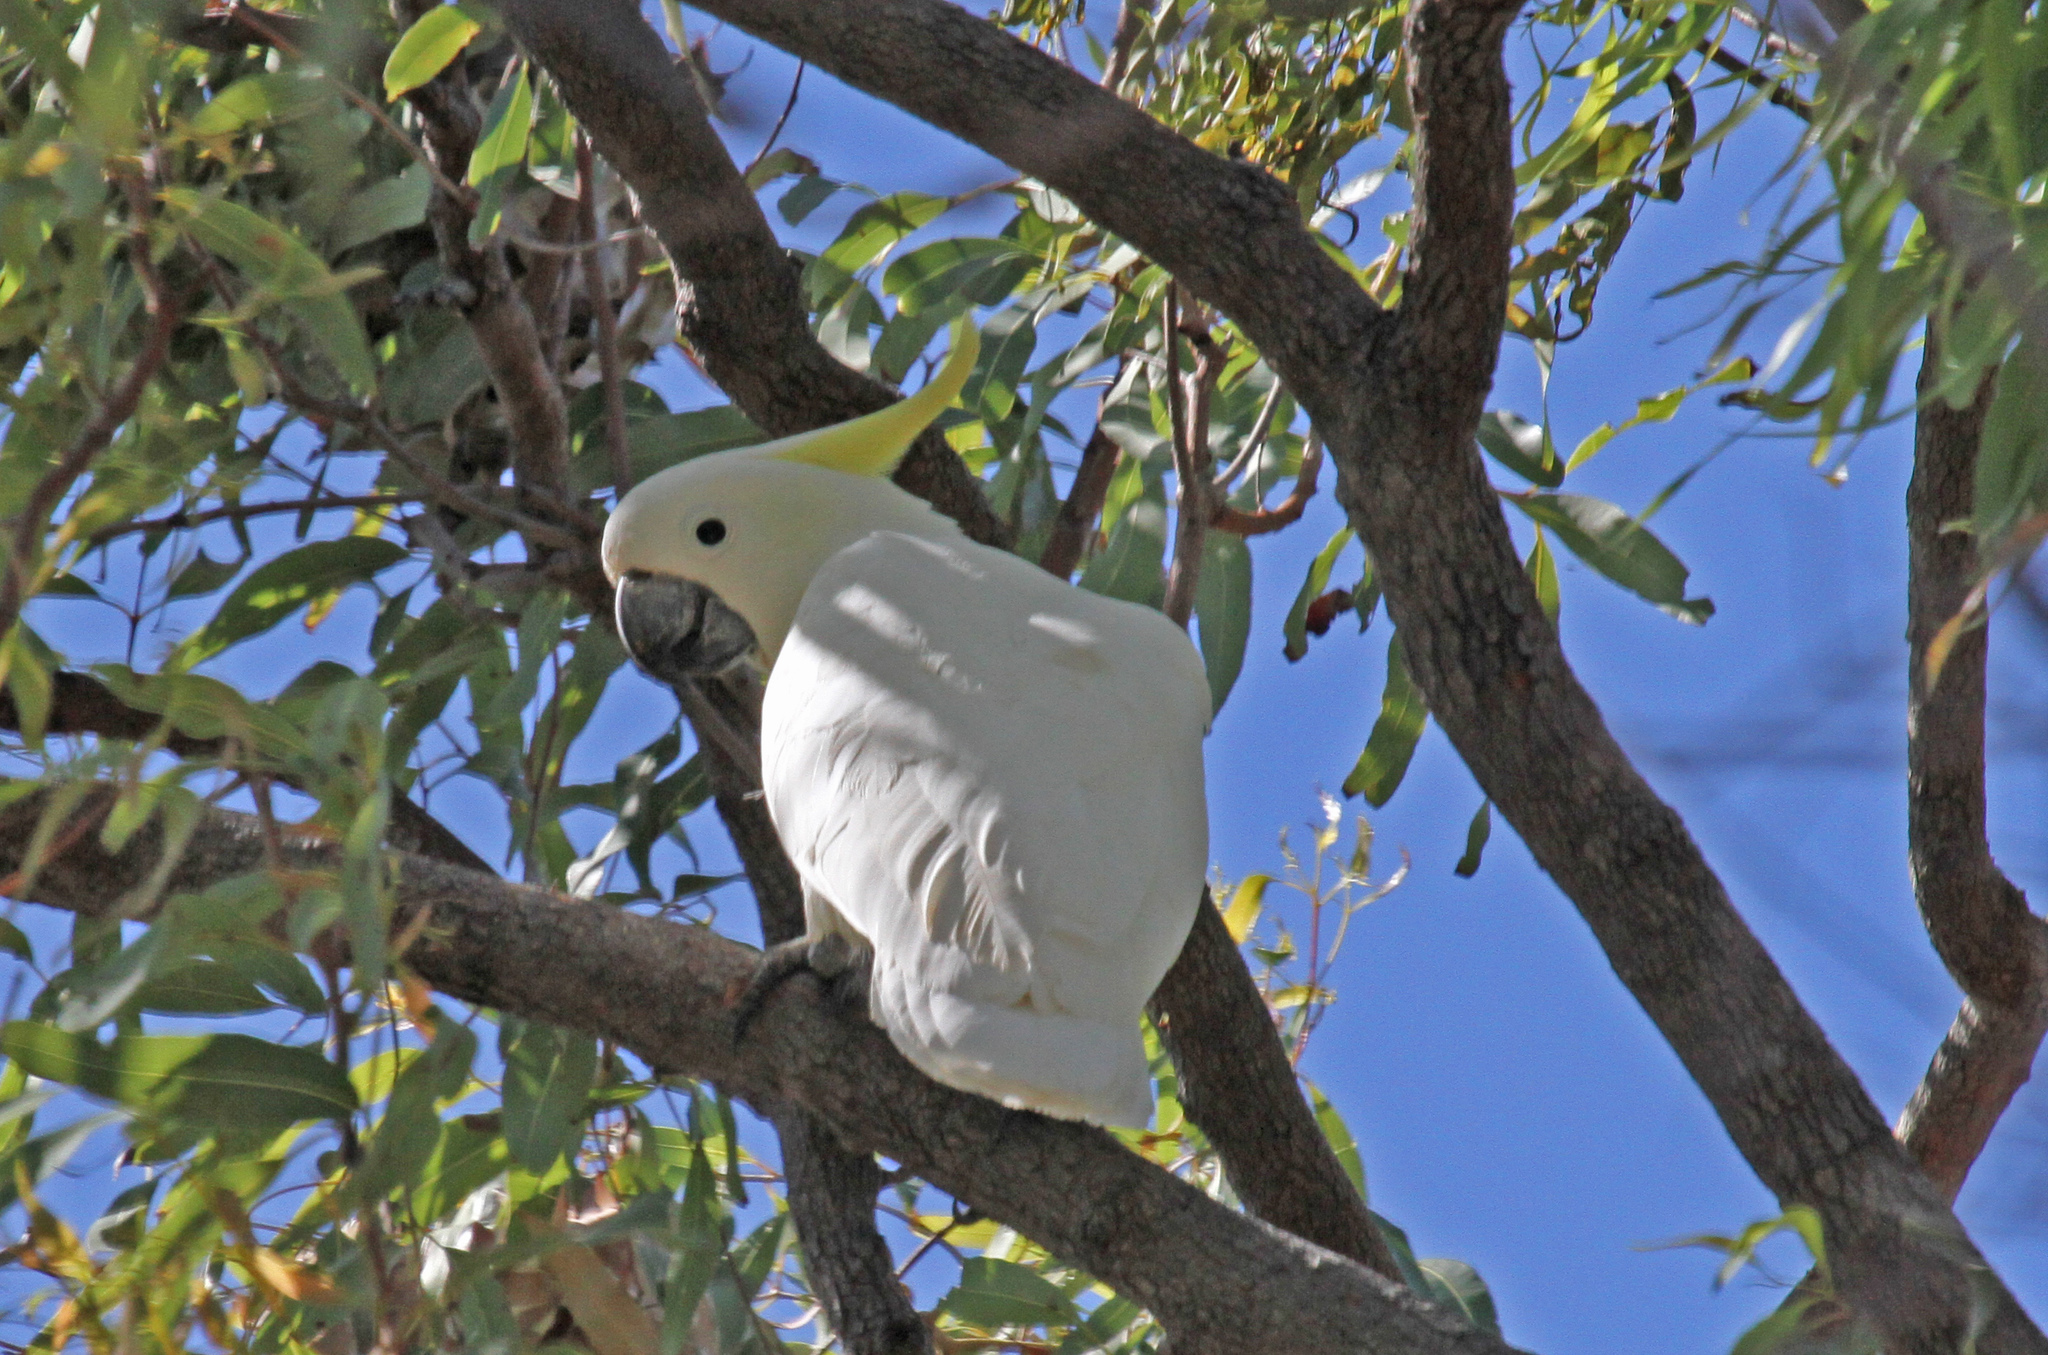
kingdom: Animalia
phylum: Chordata
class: Aves
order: Psittaciformes
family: Psittacidae
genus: Cacatua
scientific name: Cacatua galerita
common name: Sulphur-crested cockatoo
